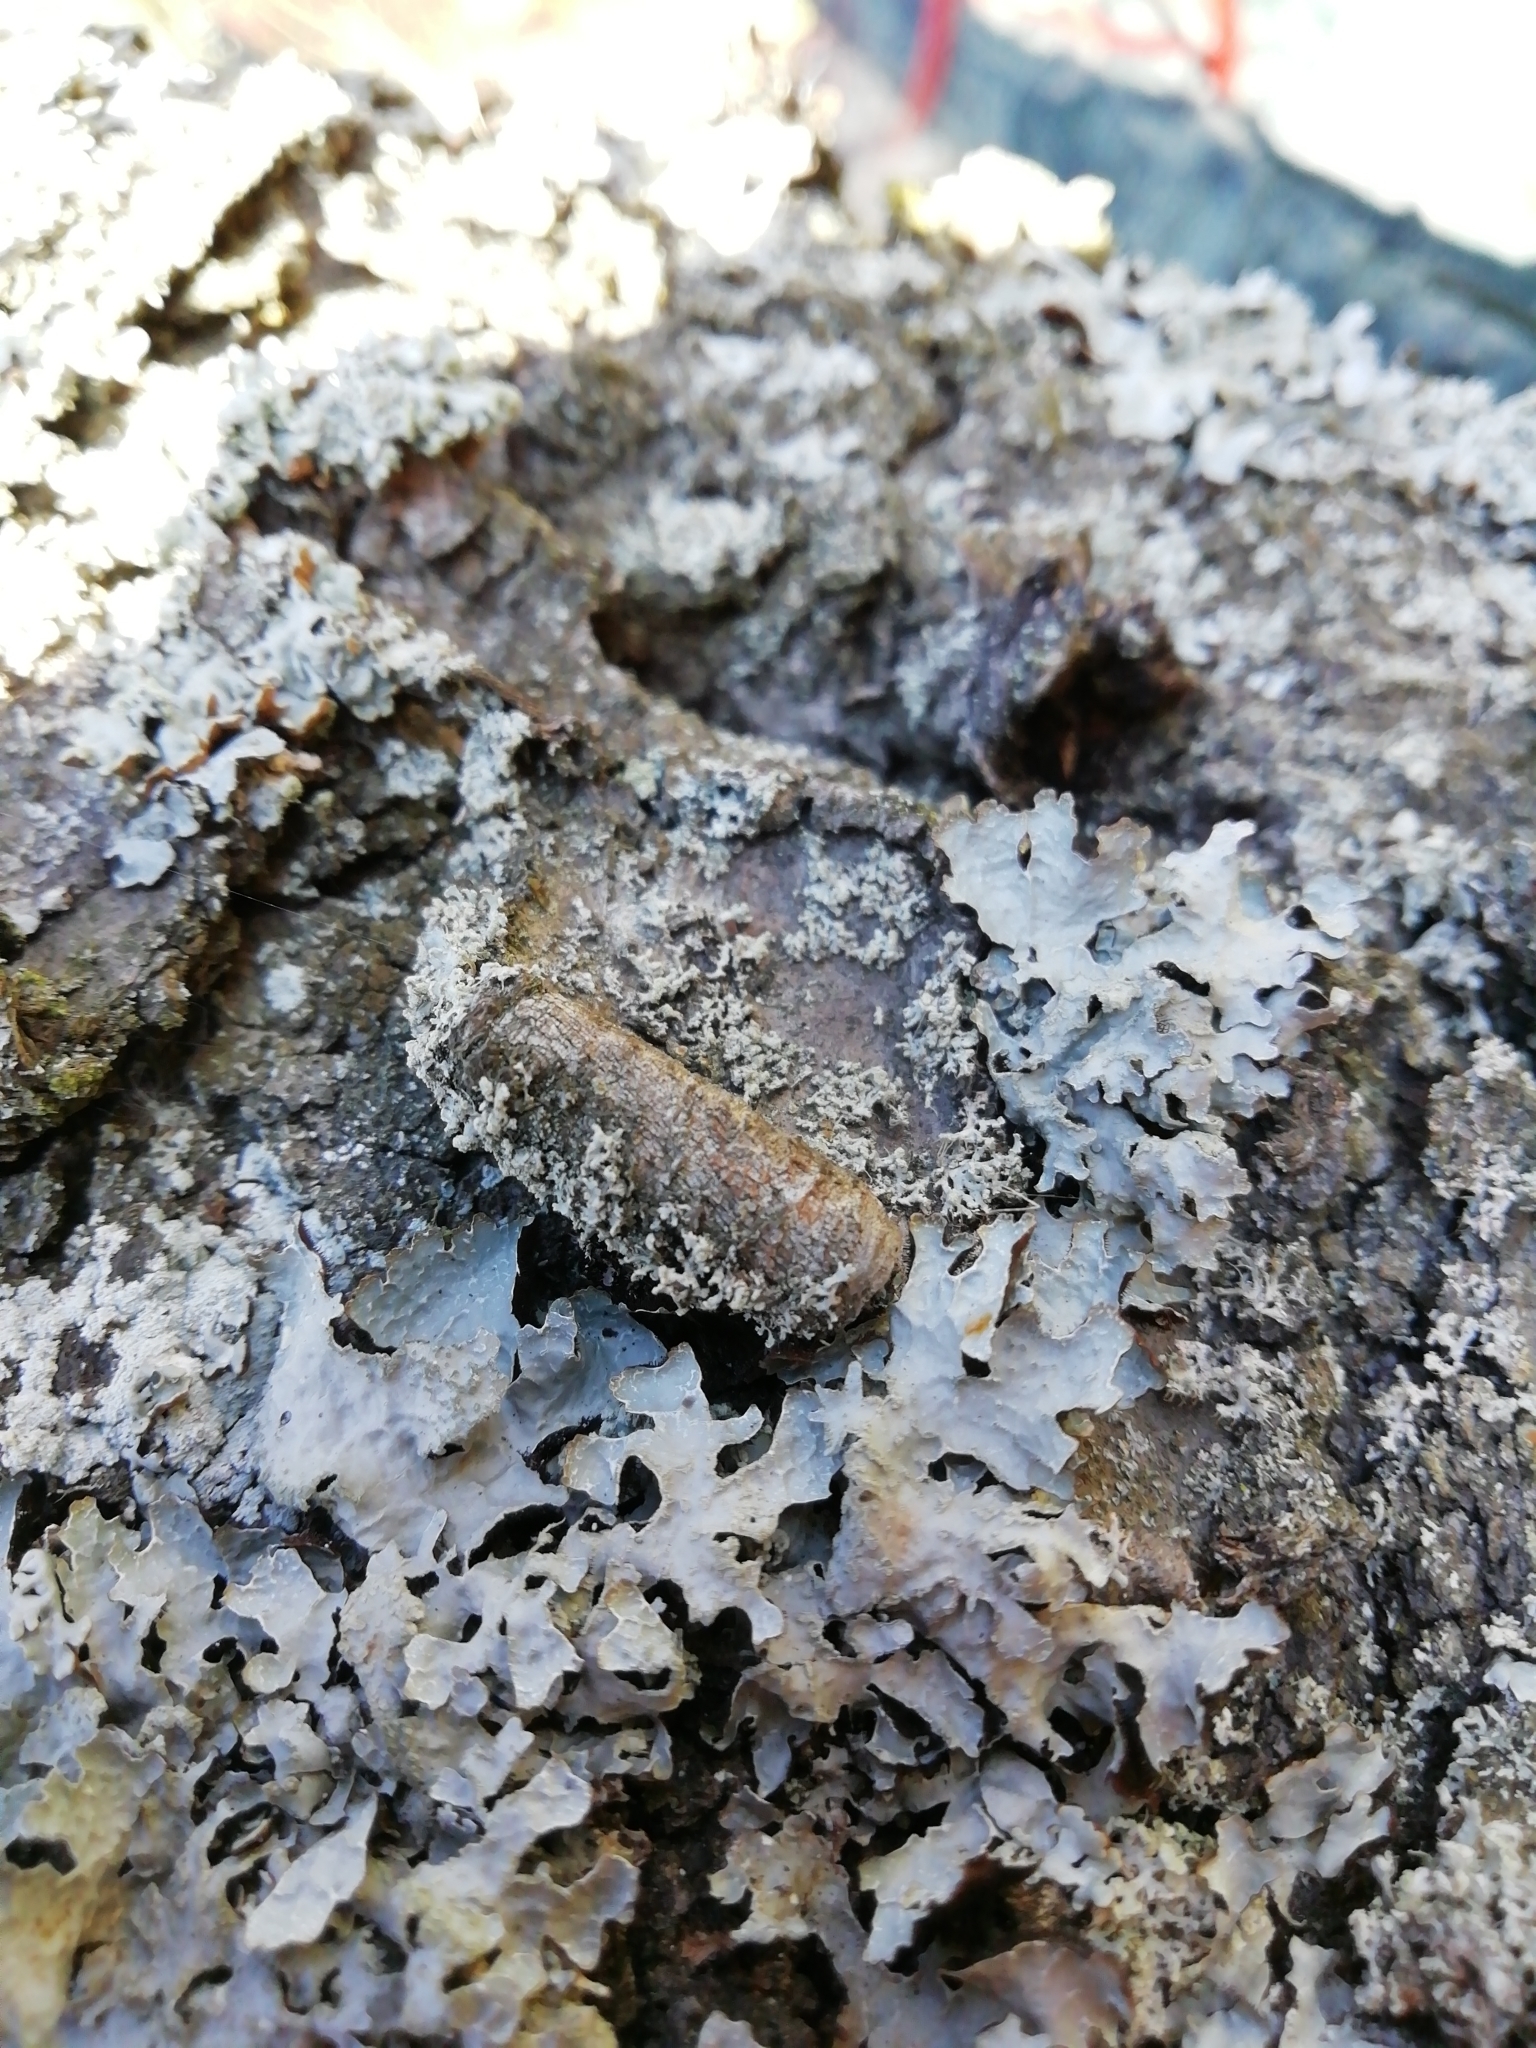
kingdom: Fungi
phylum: Ascomycota
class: Lecanoromycetes
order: Lecanorales
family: Parmeliaceae
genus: Parmelia
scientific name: Parmelia sulcata
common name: Netted shield lichen
